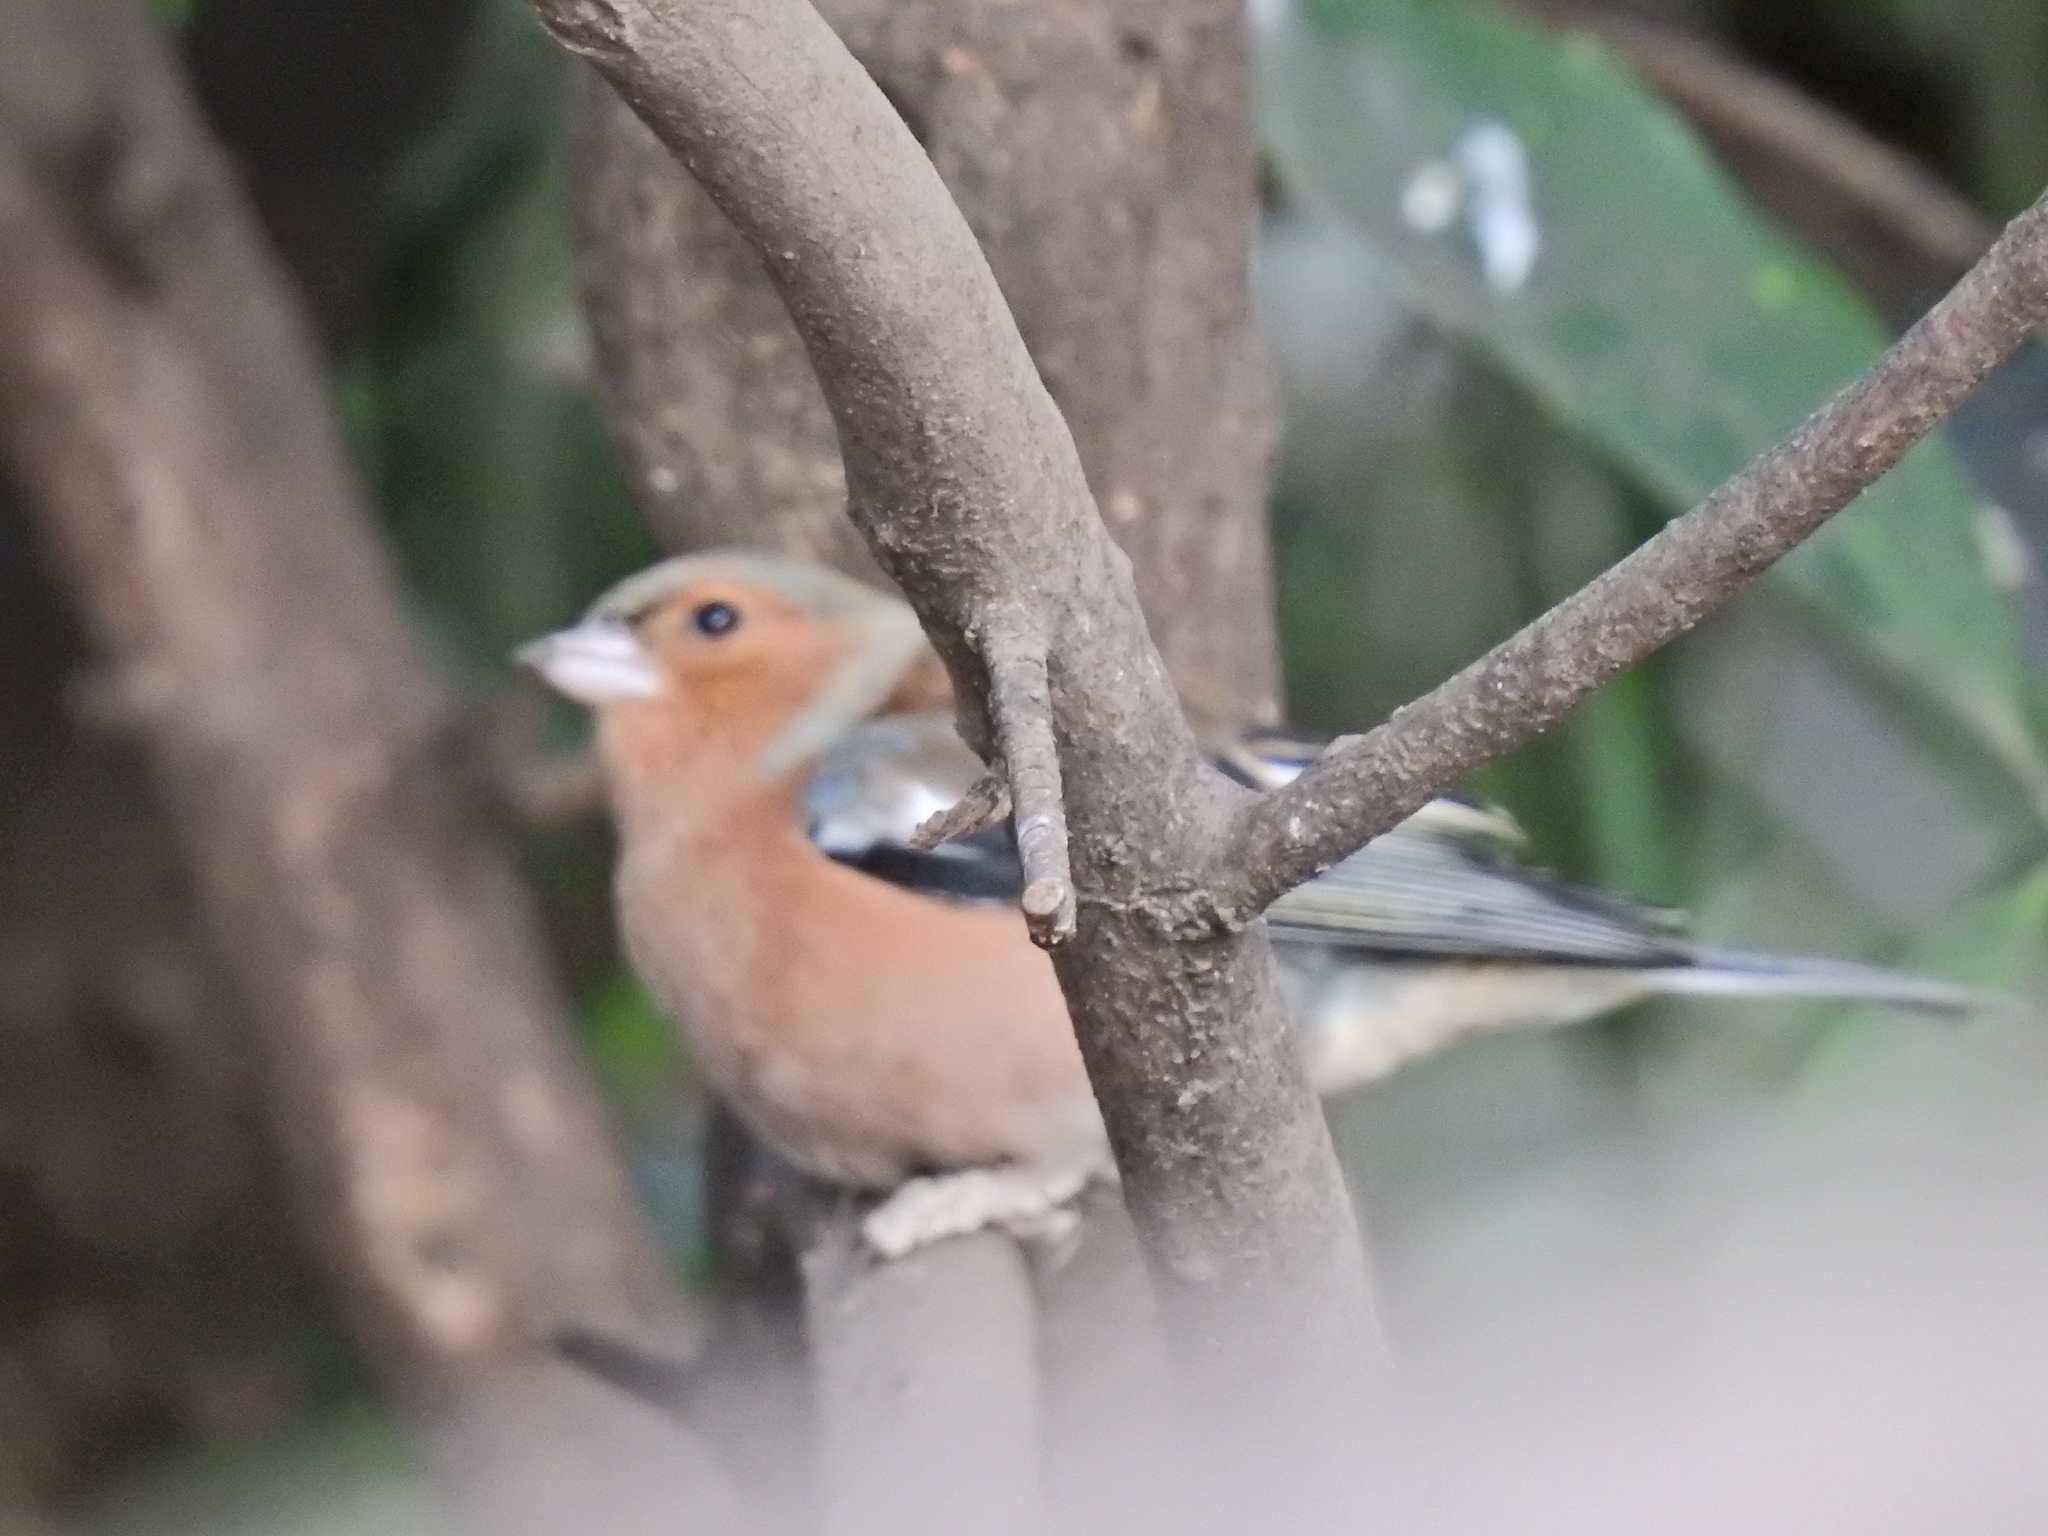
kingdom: Animalia
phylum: Chordata
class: Aves
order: Passeriformes
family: Fringillidae
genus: Fringilla
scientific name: Fringilla coelebs
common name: Common chaffinch
